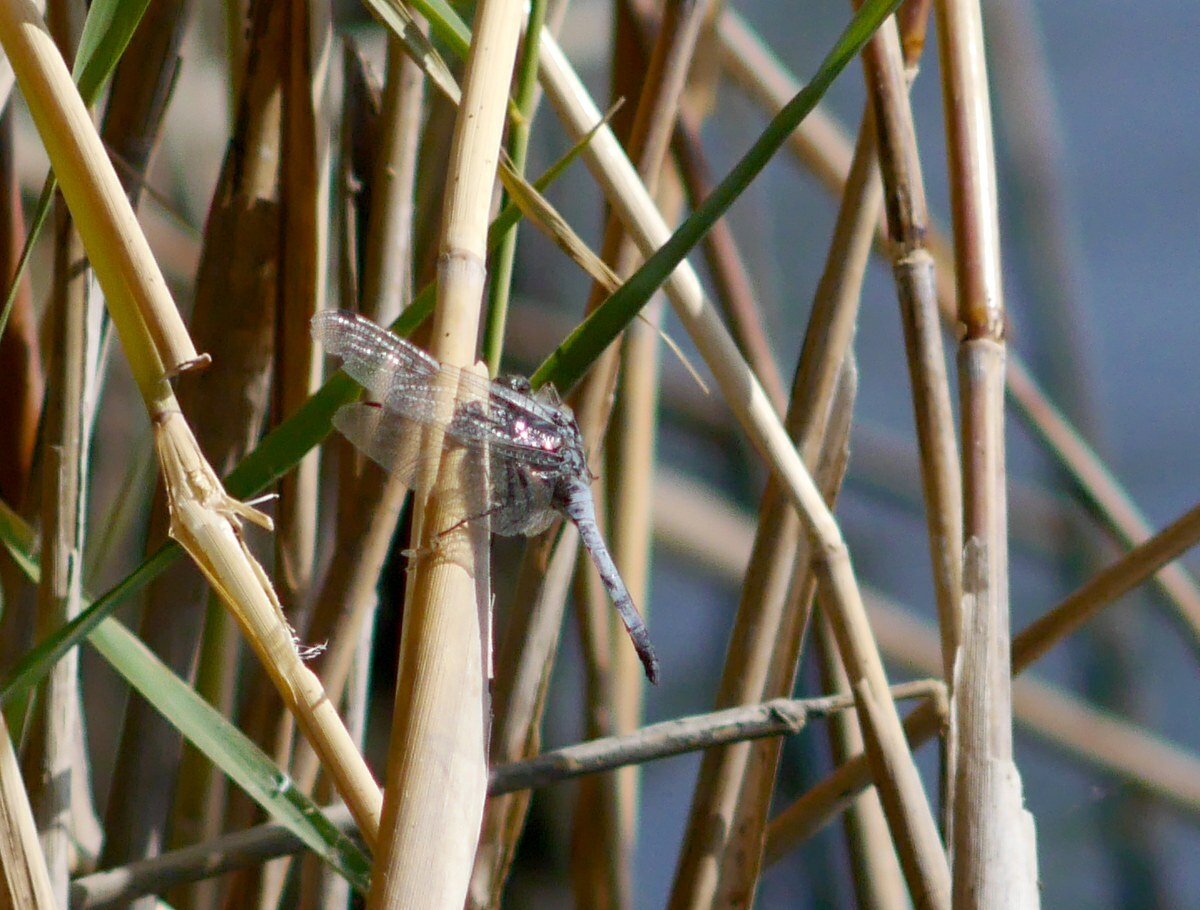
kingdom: Animalia
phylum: Arthropoda
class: Insecta
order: Odonata
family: Libellulidae
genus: Orthetrum
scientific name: Orthetrum cancellatum
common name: Black-tailed skimmer
